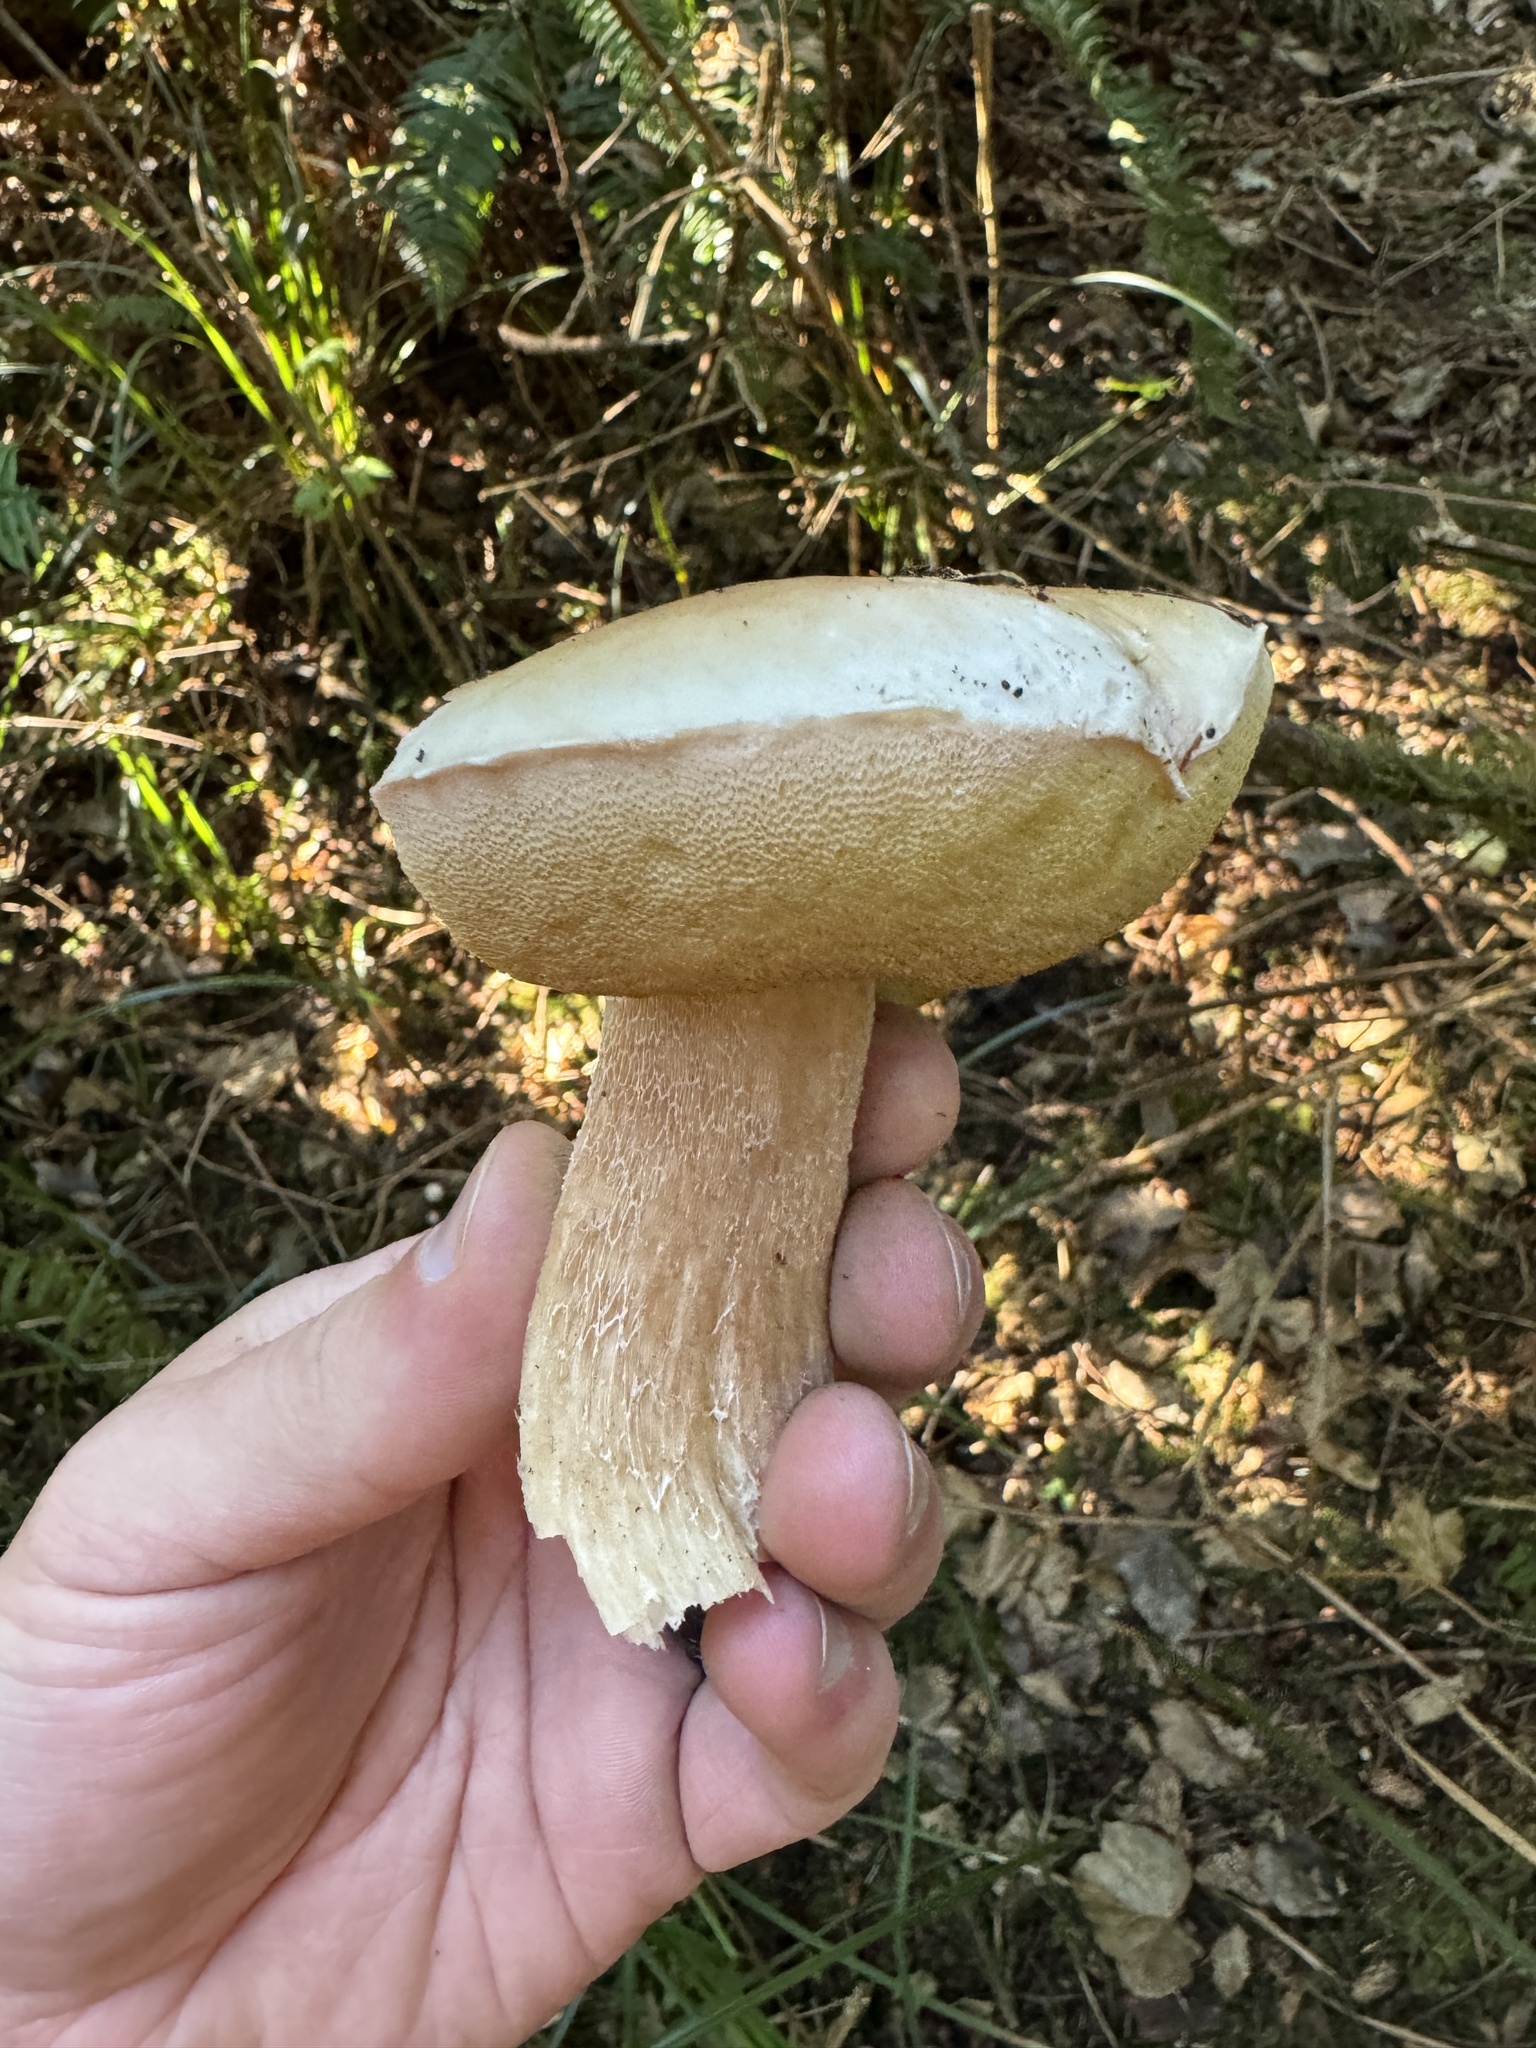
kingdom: Fungi
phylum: Basidiomycota
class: Agaricomycetes
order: Boletales
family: Boletaceae
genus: Boletus
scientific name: Boletus edulis
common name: Cep
